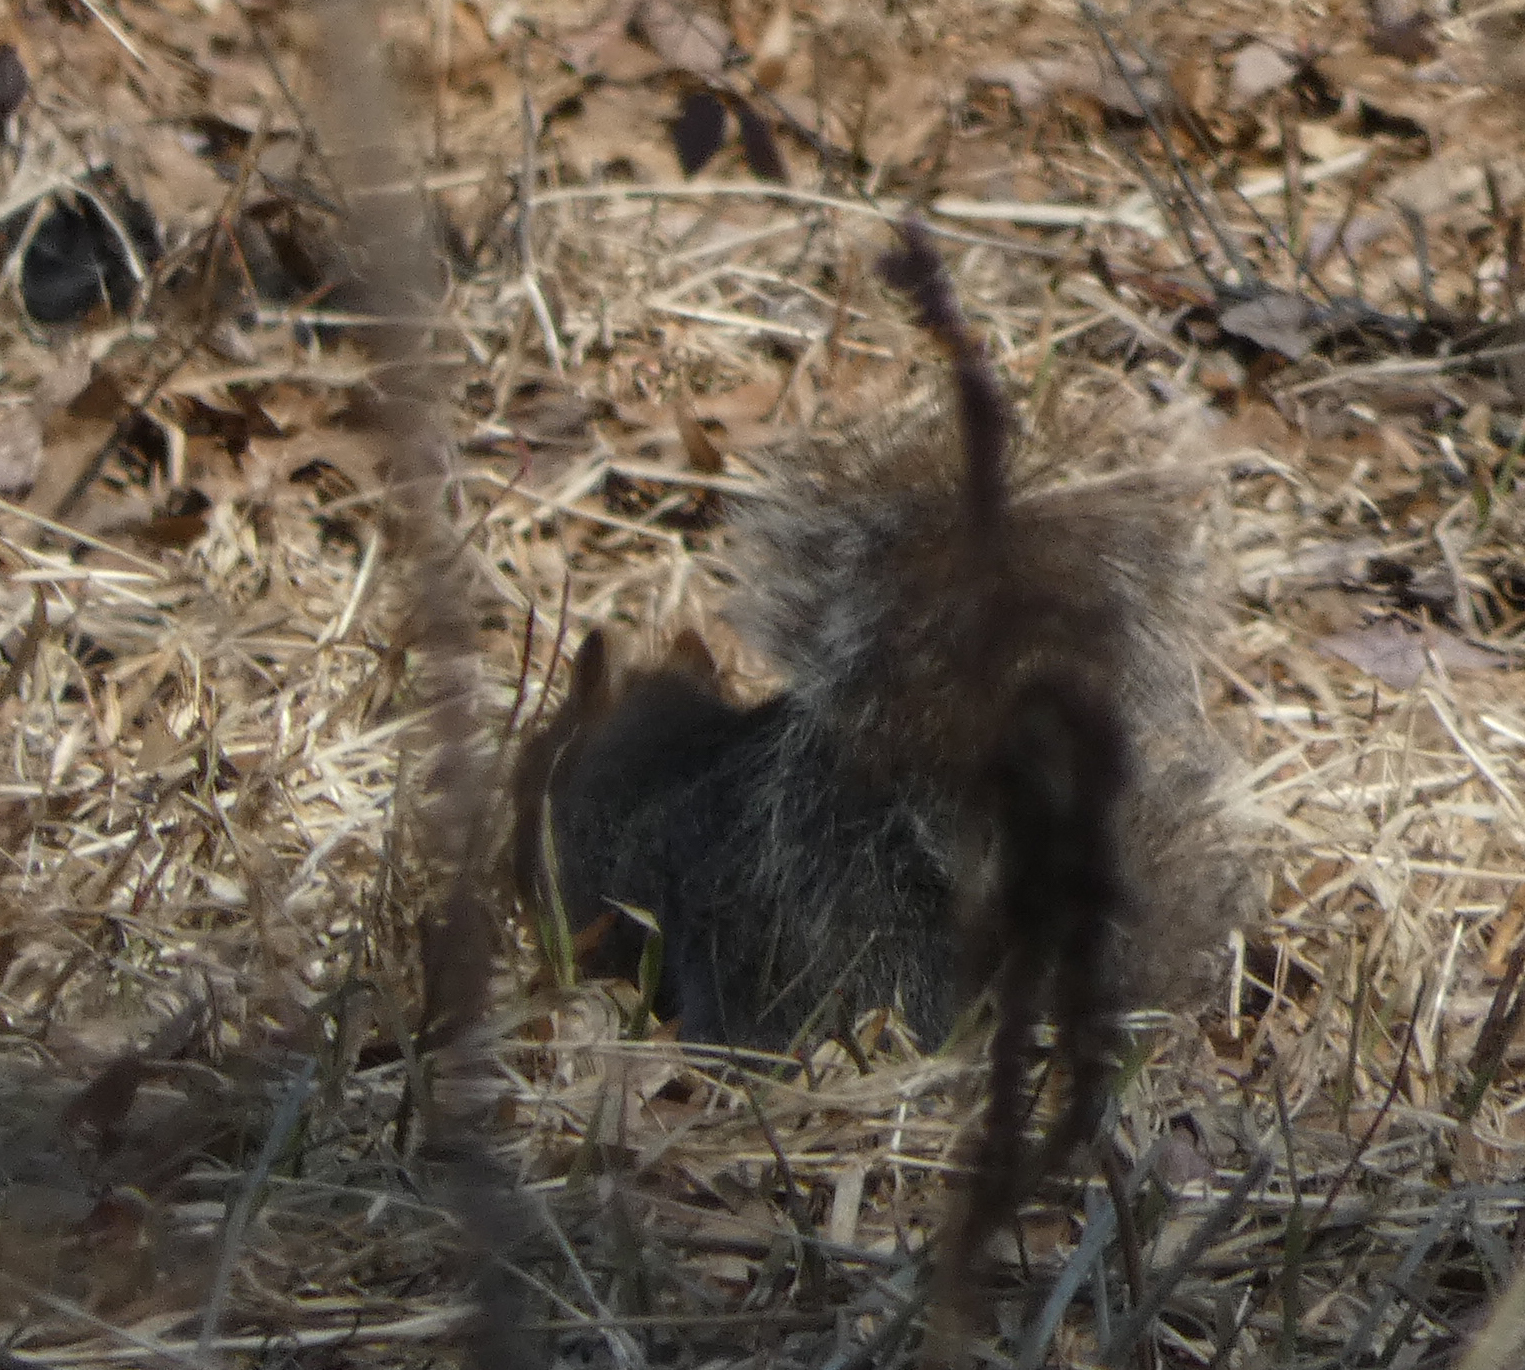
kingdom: Animalia
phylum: Chordata
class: Mammalia
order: Rodentia
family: Sciuridae
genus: Sciurus
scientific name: Sciurus carolinensis
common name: Eastern gray squirrel
